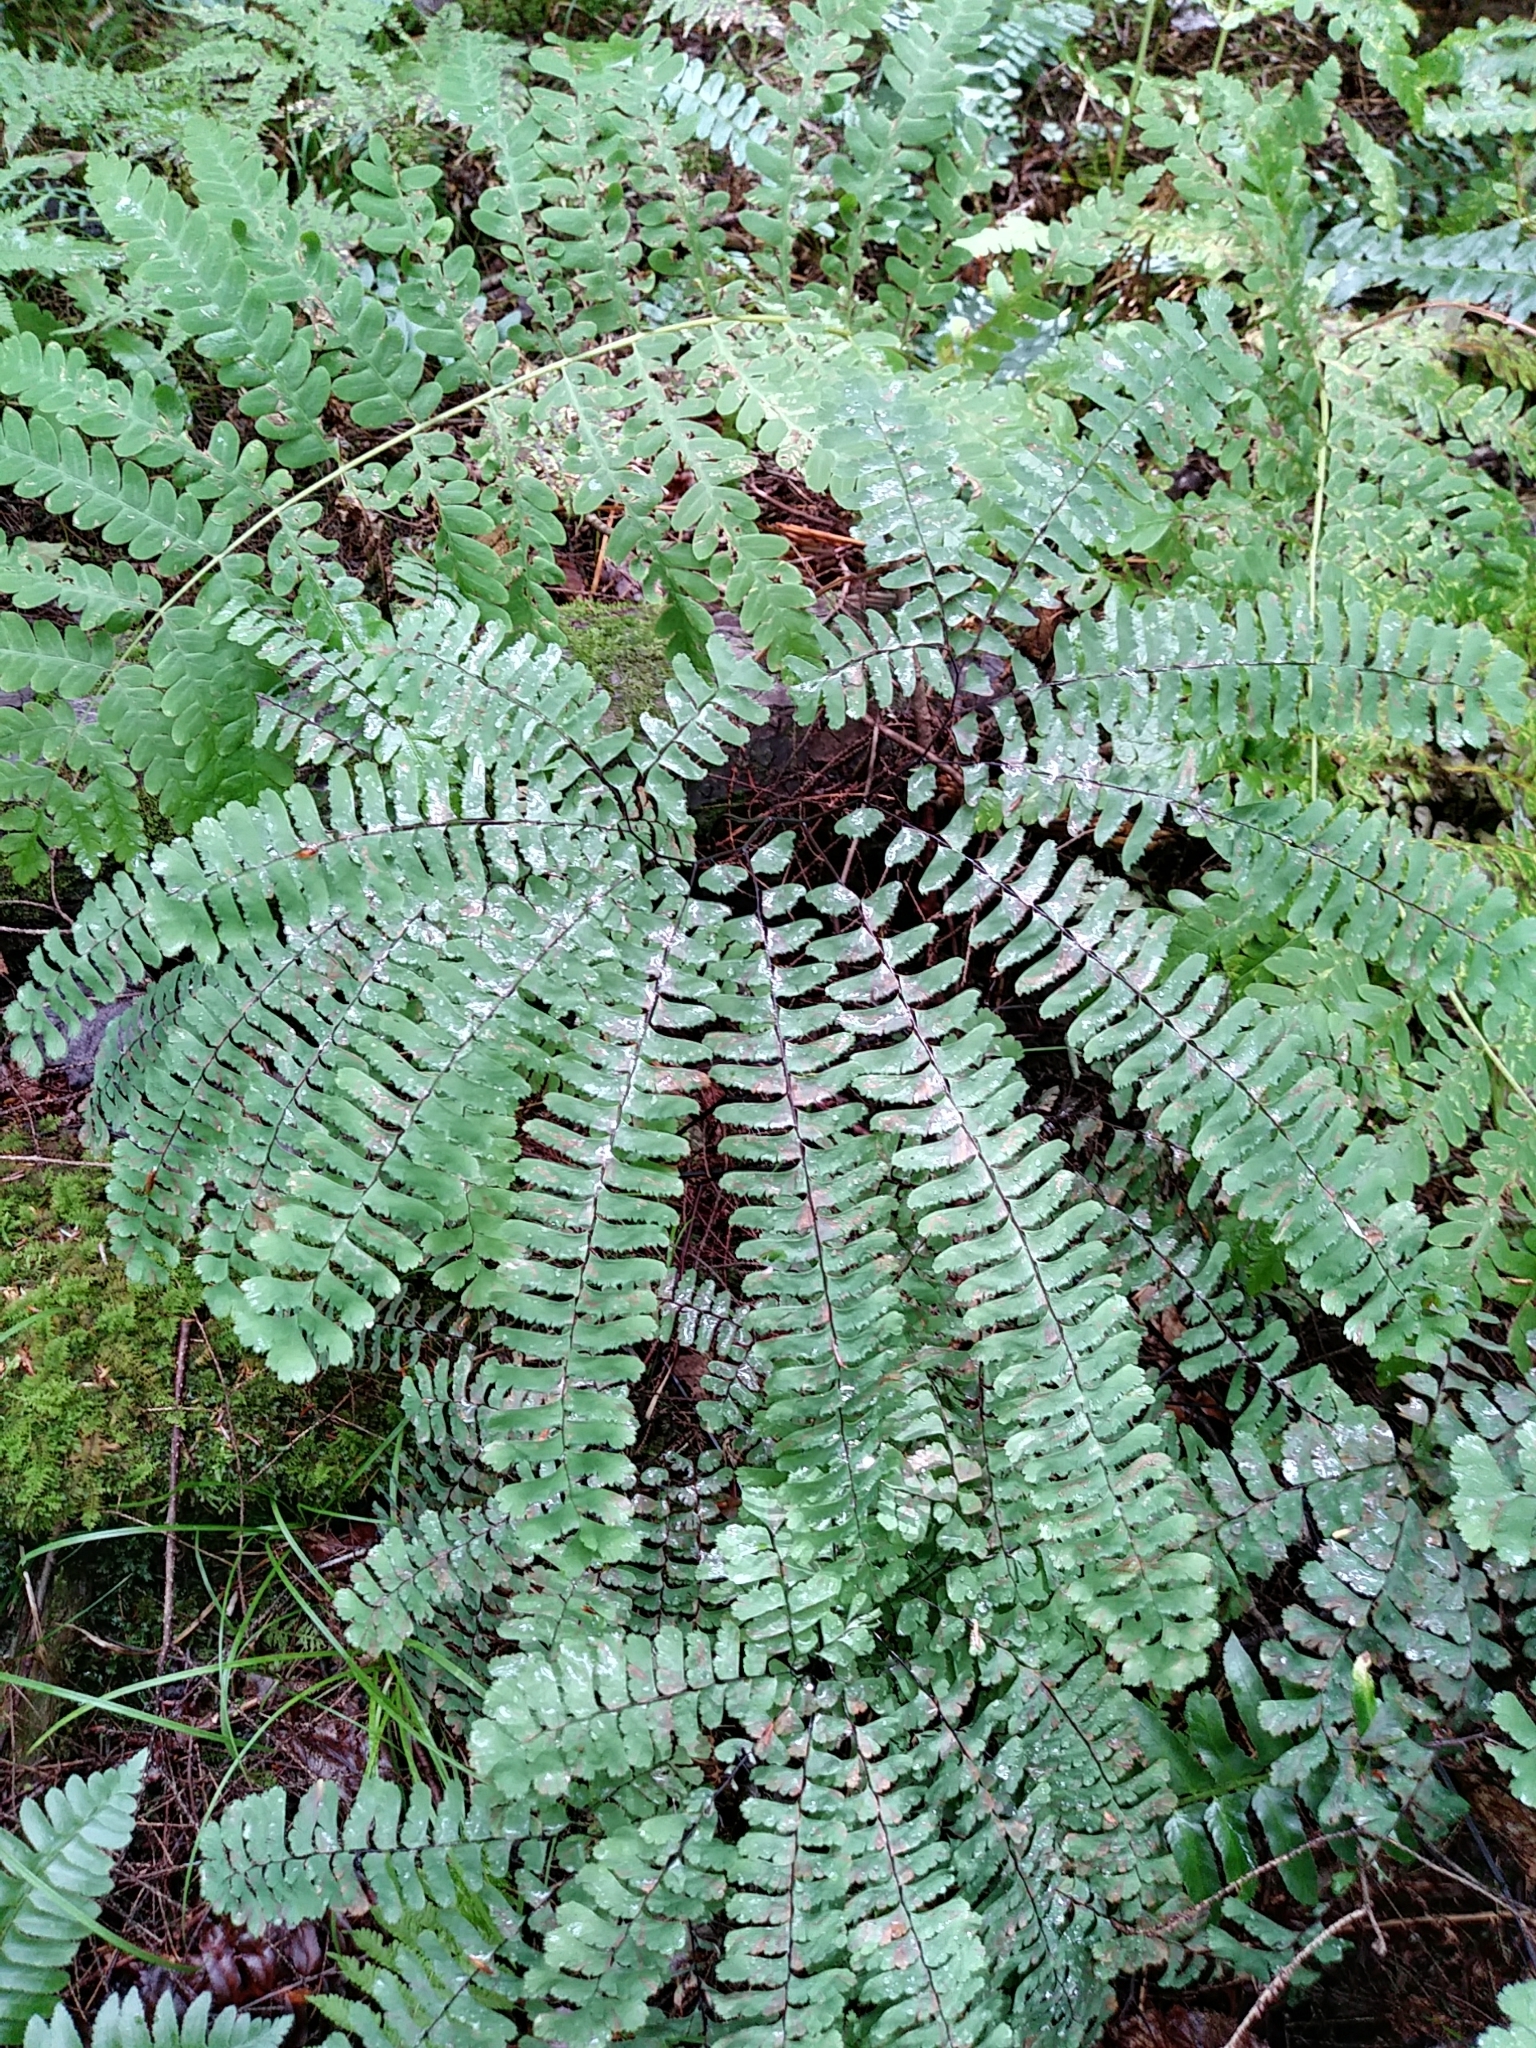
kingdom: Plantae
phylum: Tracheophyta
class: Polypodiopsida
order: Polypodiales
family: Pteridaceae
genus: Adiantum
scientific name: Adiantum pedatum
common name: Five-finger fern
